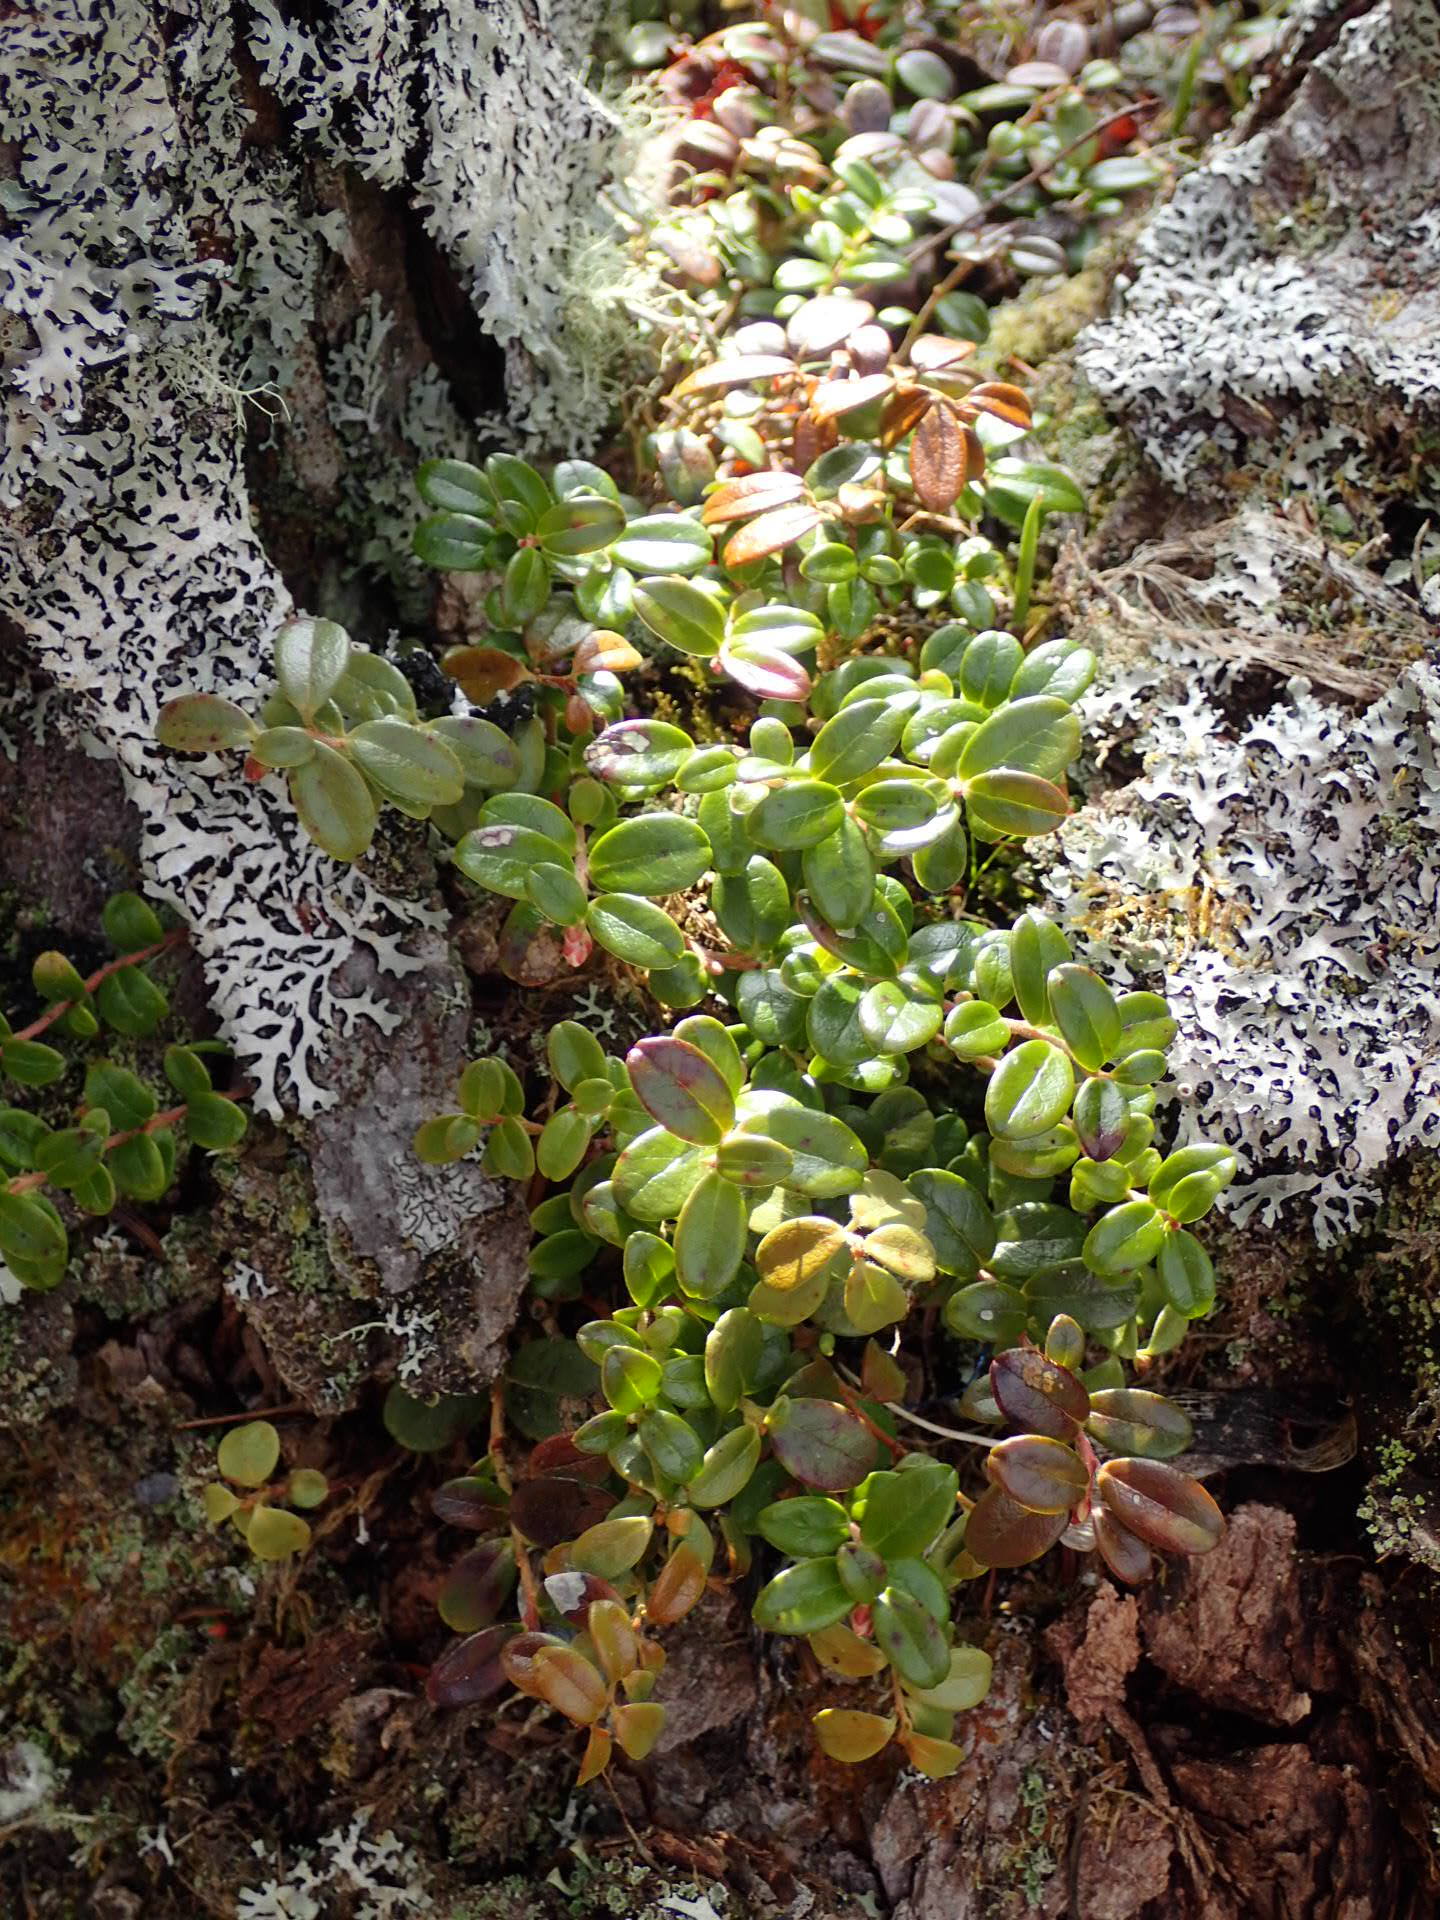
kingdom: Plantae
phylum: Tracheophyta
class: Magnoliopsida
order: Ericales
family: Ericaceae
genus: Vaccinium
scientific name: Vaccinium vitis-idaea
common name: Cowberry
